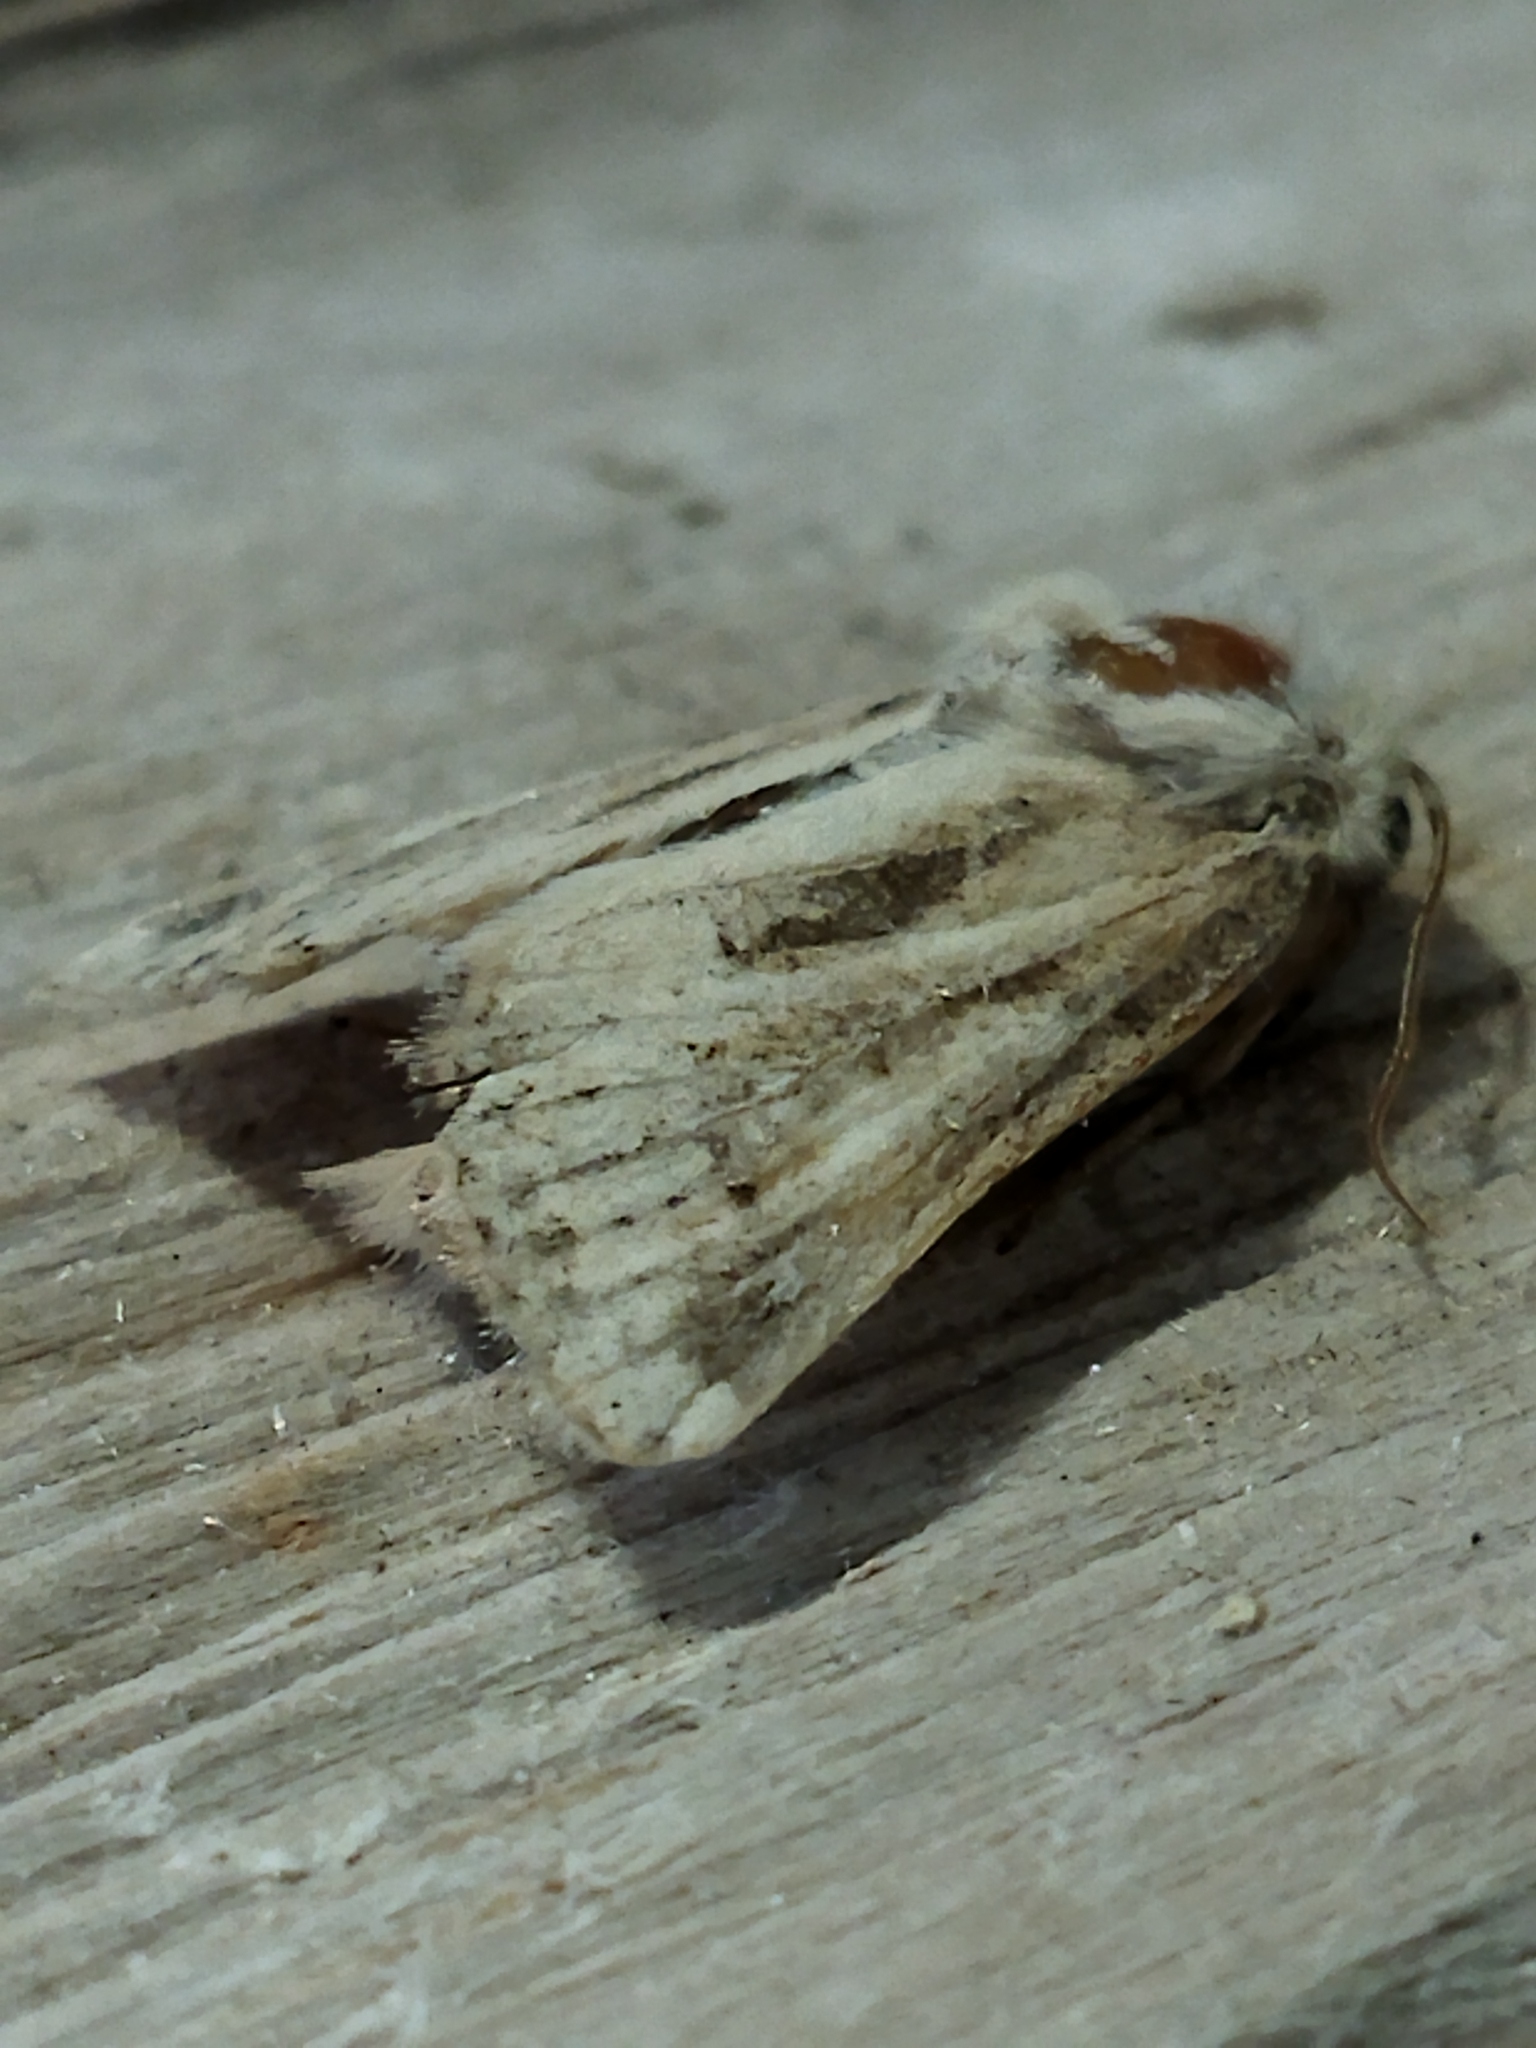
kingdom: Animalia
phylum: Arthropoda
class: Insecta
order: Lepidoptera
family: Noctuidae
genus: Luperina
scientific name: Luperina dumerilii
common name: Dumeril's rustic
